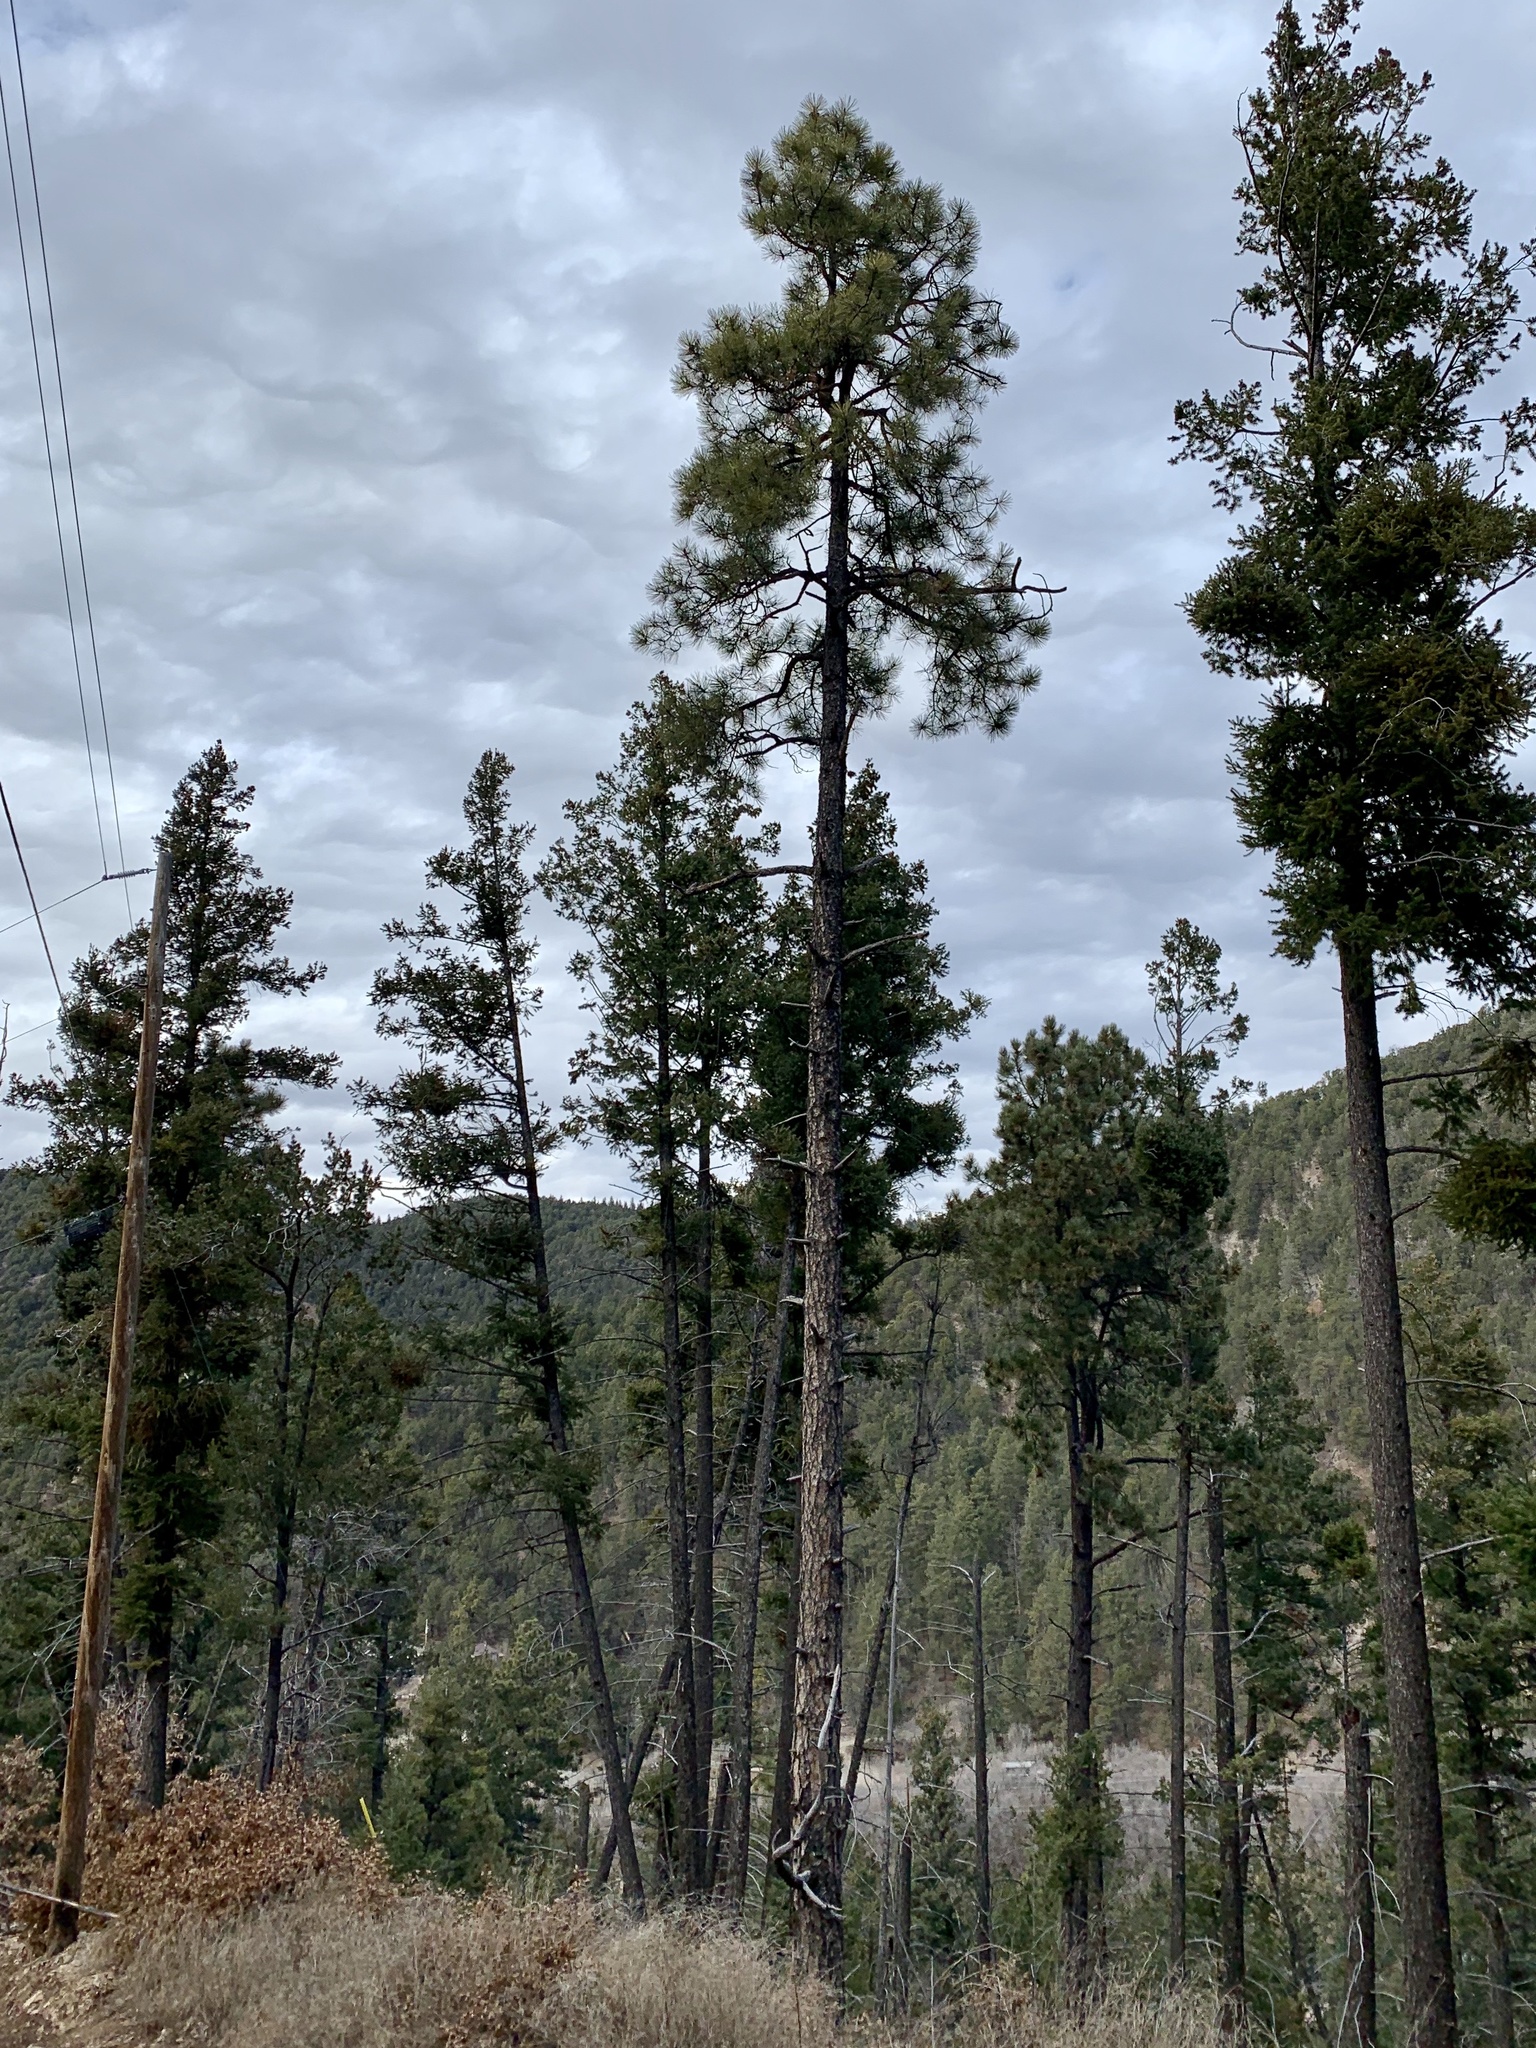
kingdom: Plantae
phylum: Tracheophyta
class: Pinopsida
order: Pinales
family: Pinaceae
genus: Pinus
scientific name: Pinus ponderosa
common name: Western yellow-pine
